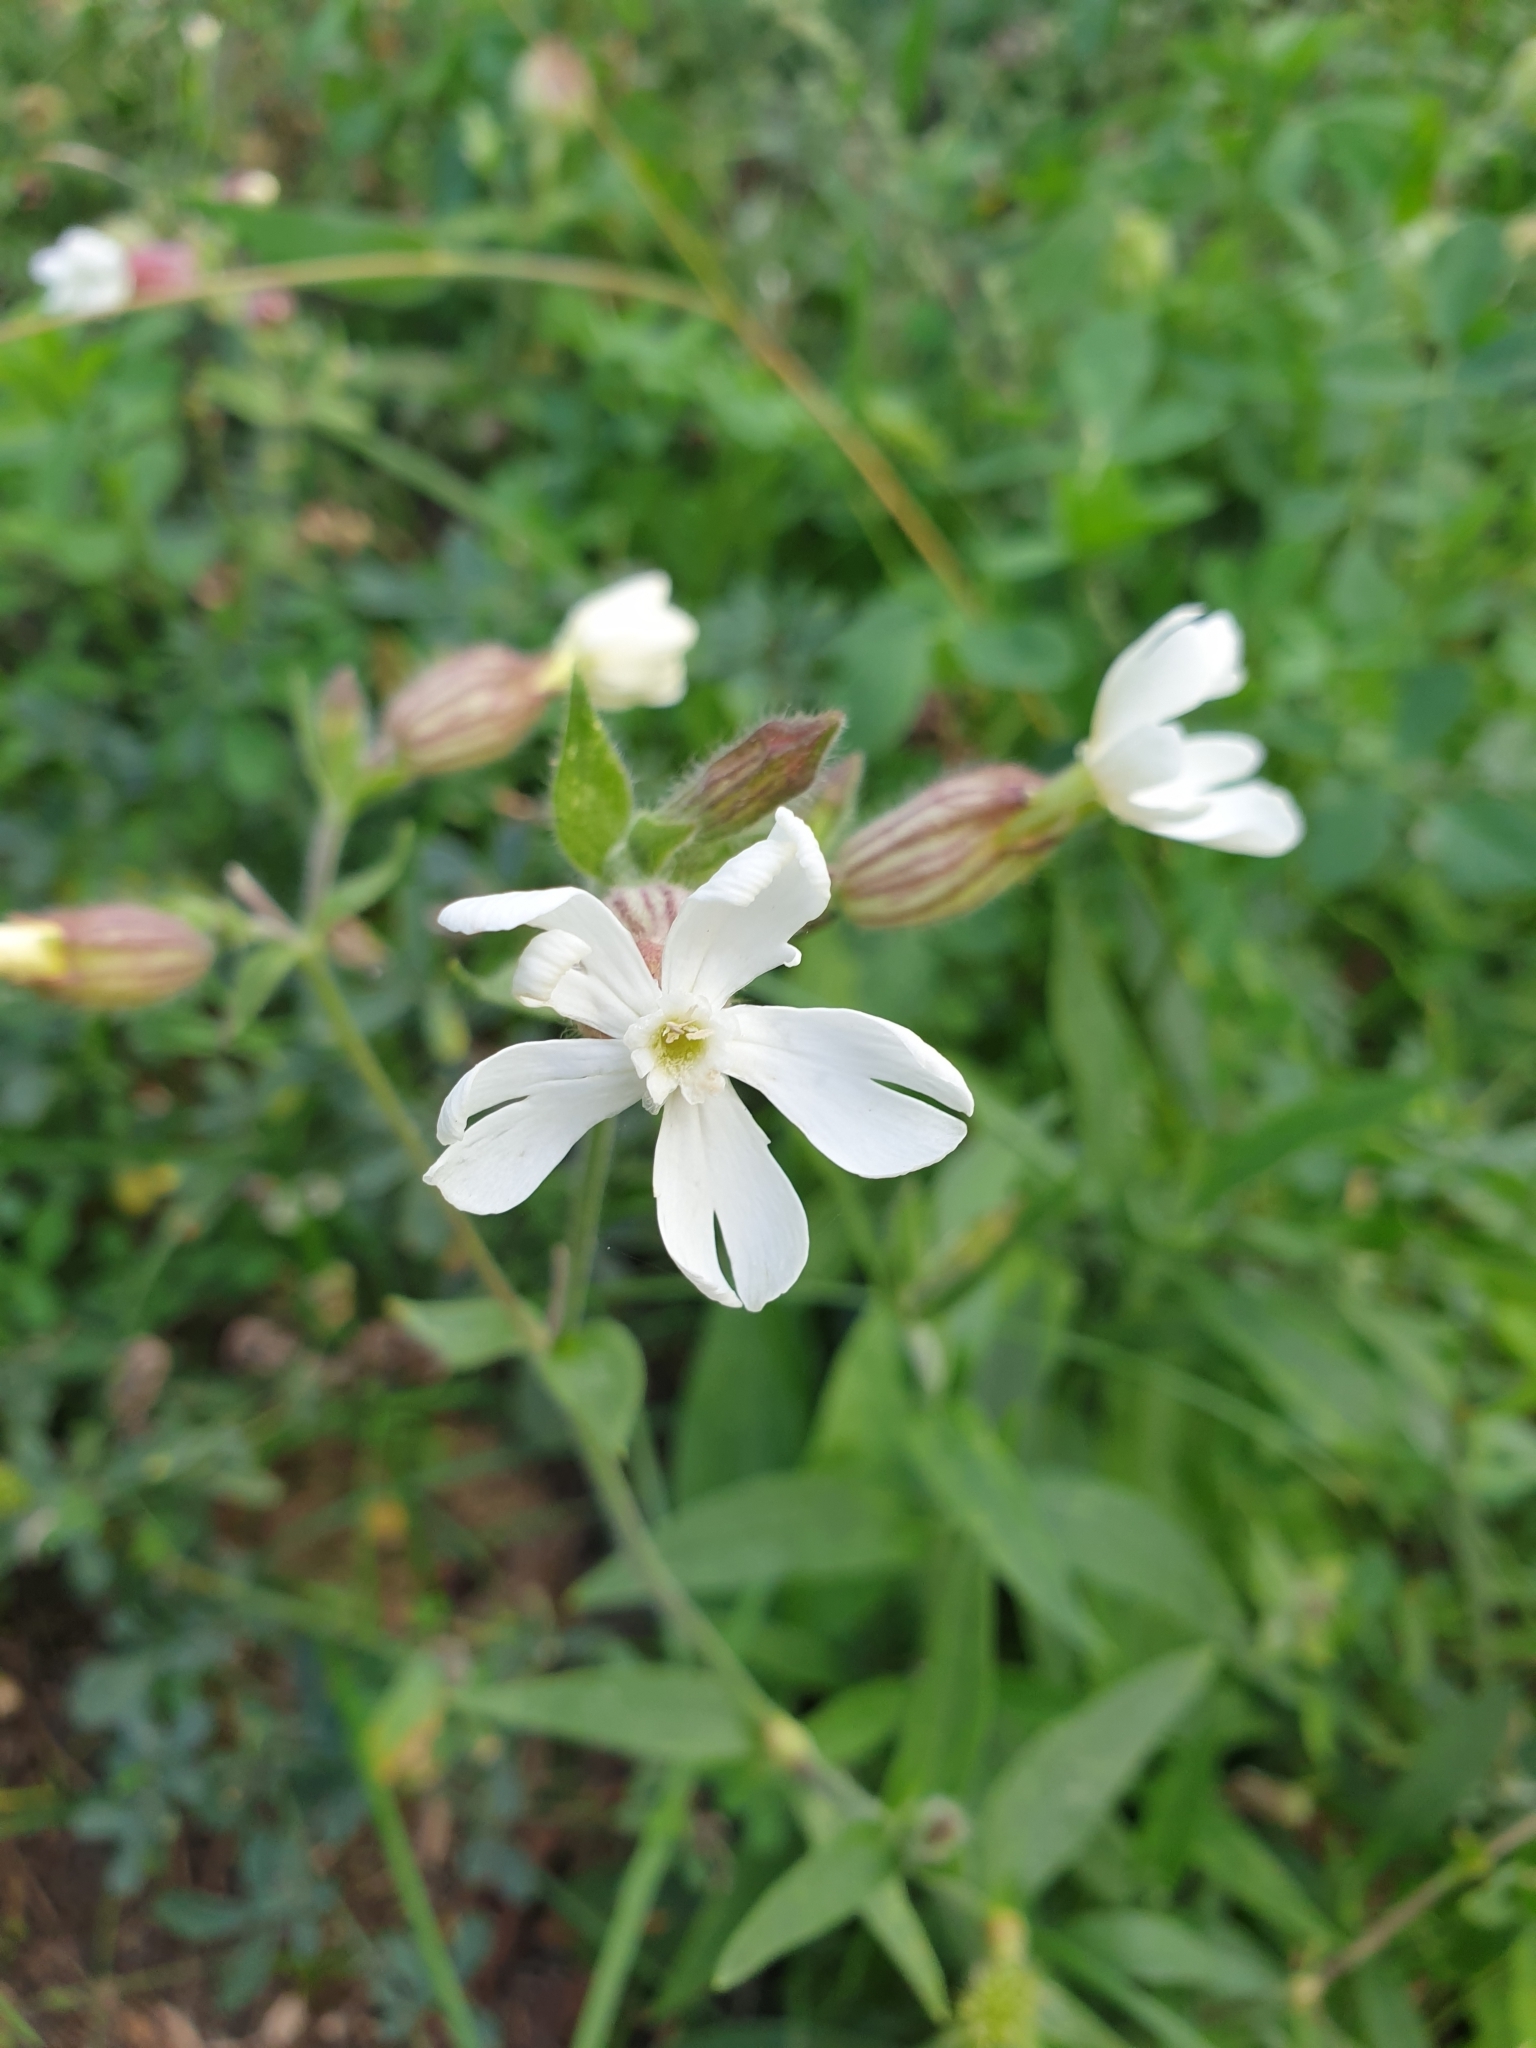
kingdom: Plantae
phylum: Tracheophyta
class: Magnoliopsida
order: Caryophyllales
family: Caryophyllaceae
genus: Silene
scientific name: Silene latifolia
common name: White campion
